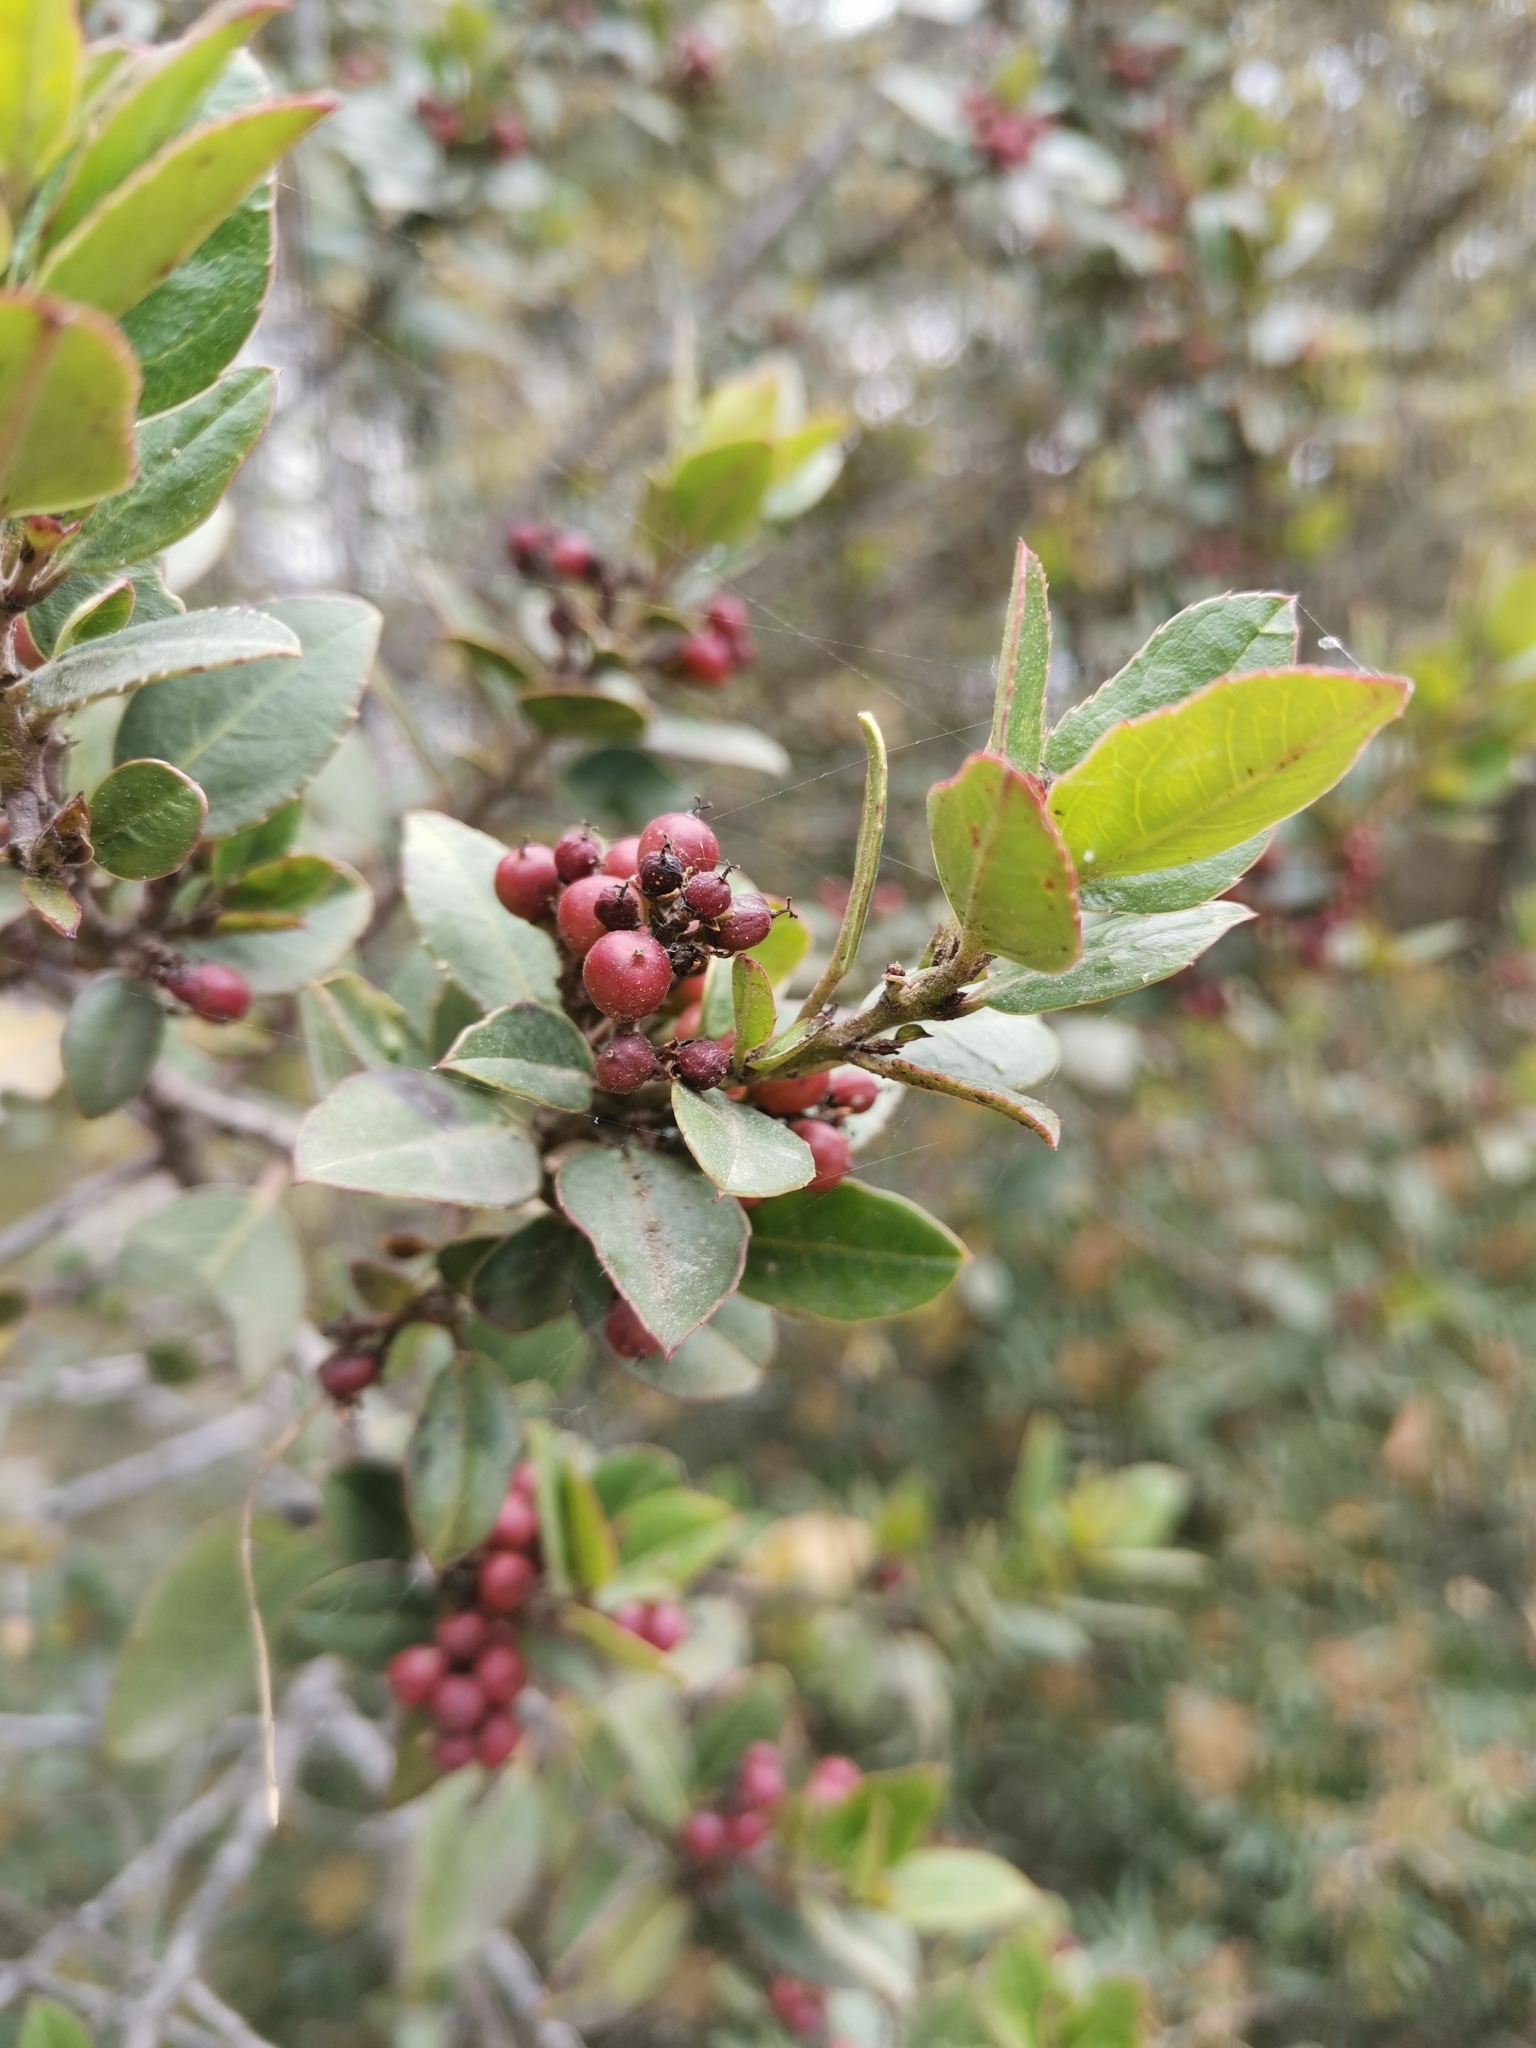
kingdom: Plantae
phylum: Tracheophyta
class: Magnoliopsida
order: Rosales
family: Rhamnaceae
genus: Rhamnus
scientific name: Rhamnus alaternus
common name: Mediterranean buckthorn
